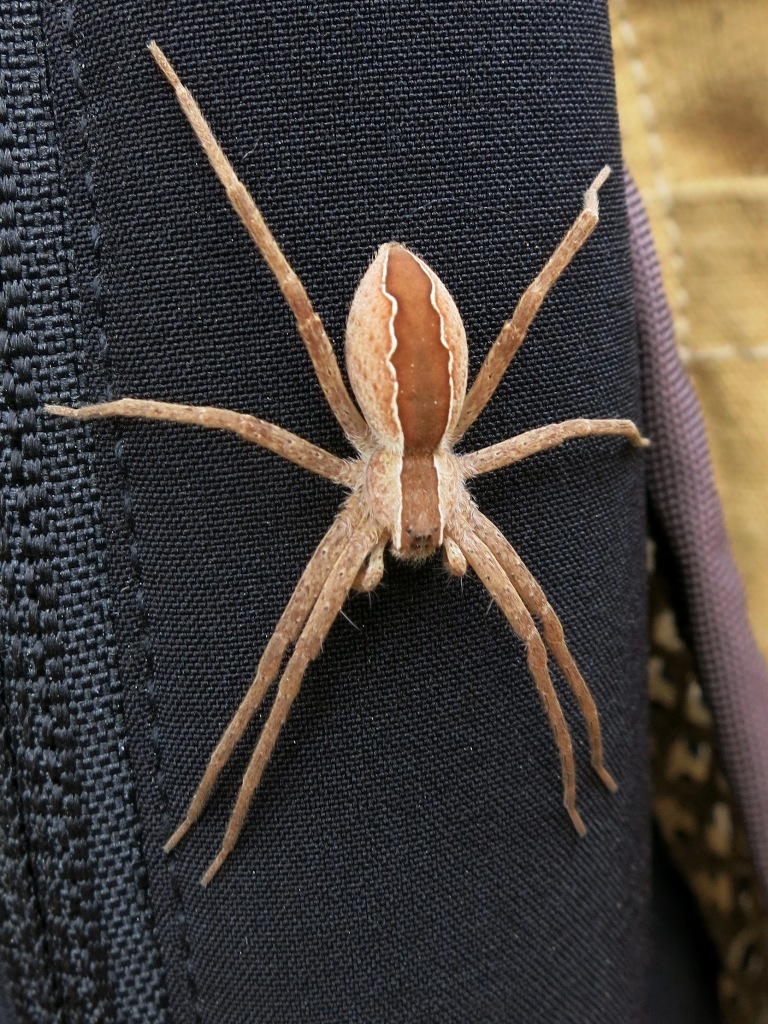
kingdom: Animalia
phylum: Arthropoda
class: Arachnida
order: Araneae
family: Pisauridae
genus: Pisaurina
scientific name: Pisaurina mira
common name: American nursery web spider
